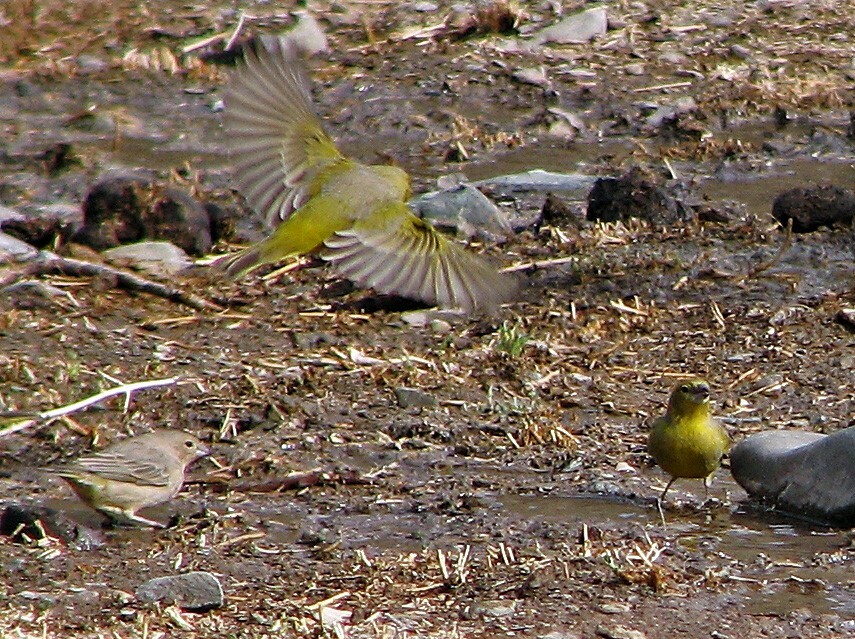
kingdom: Animalia
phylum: Chordata
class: Aves
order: Passeriformes
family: Thraupidae
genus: Sicalis
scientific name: Sicalis olivascens
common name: Greenish yellow finch
